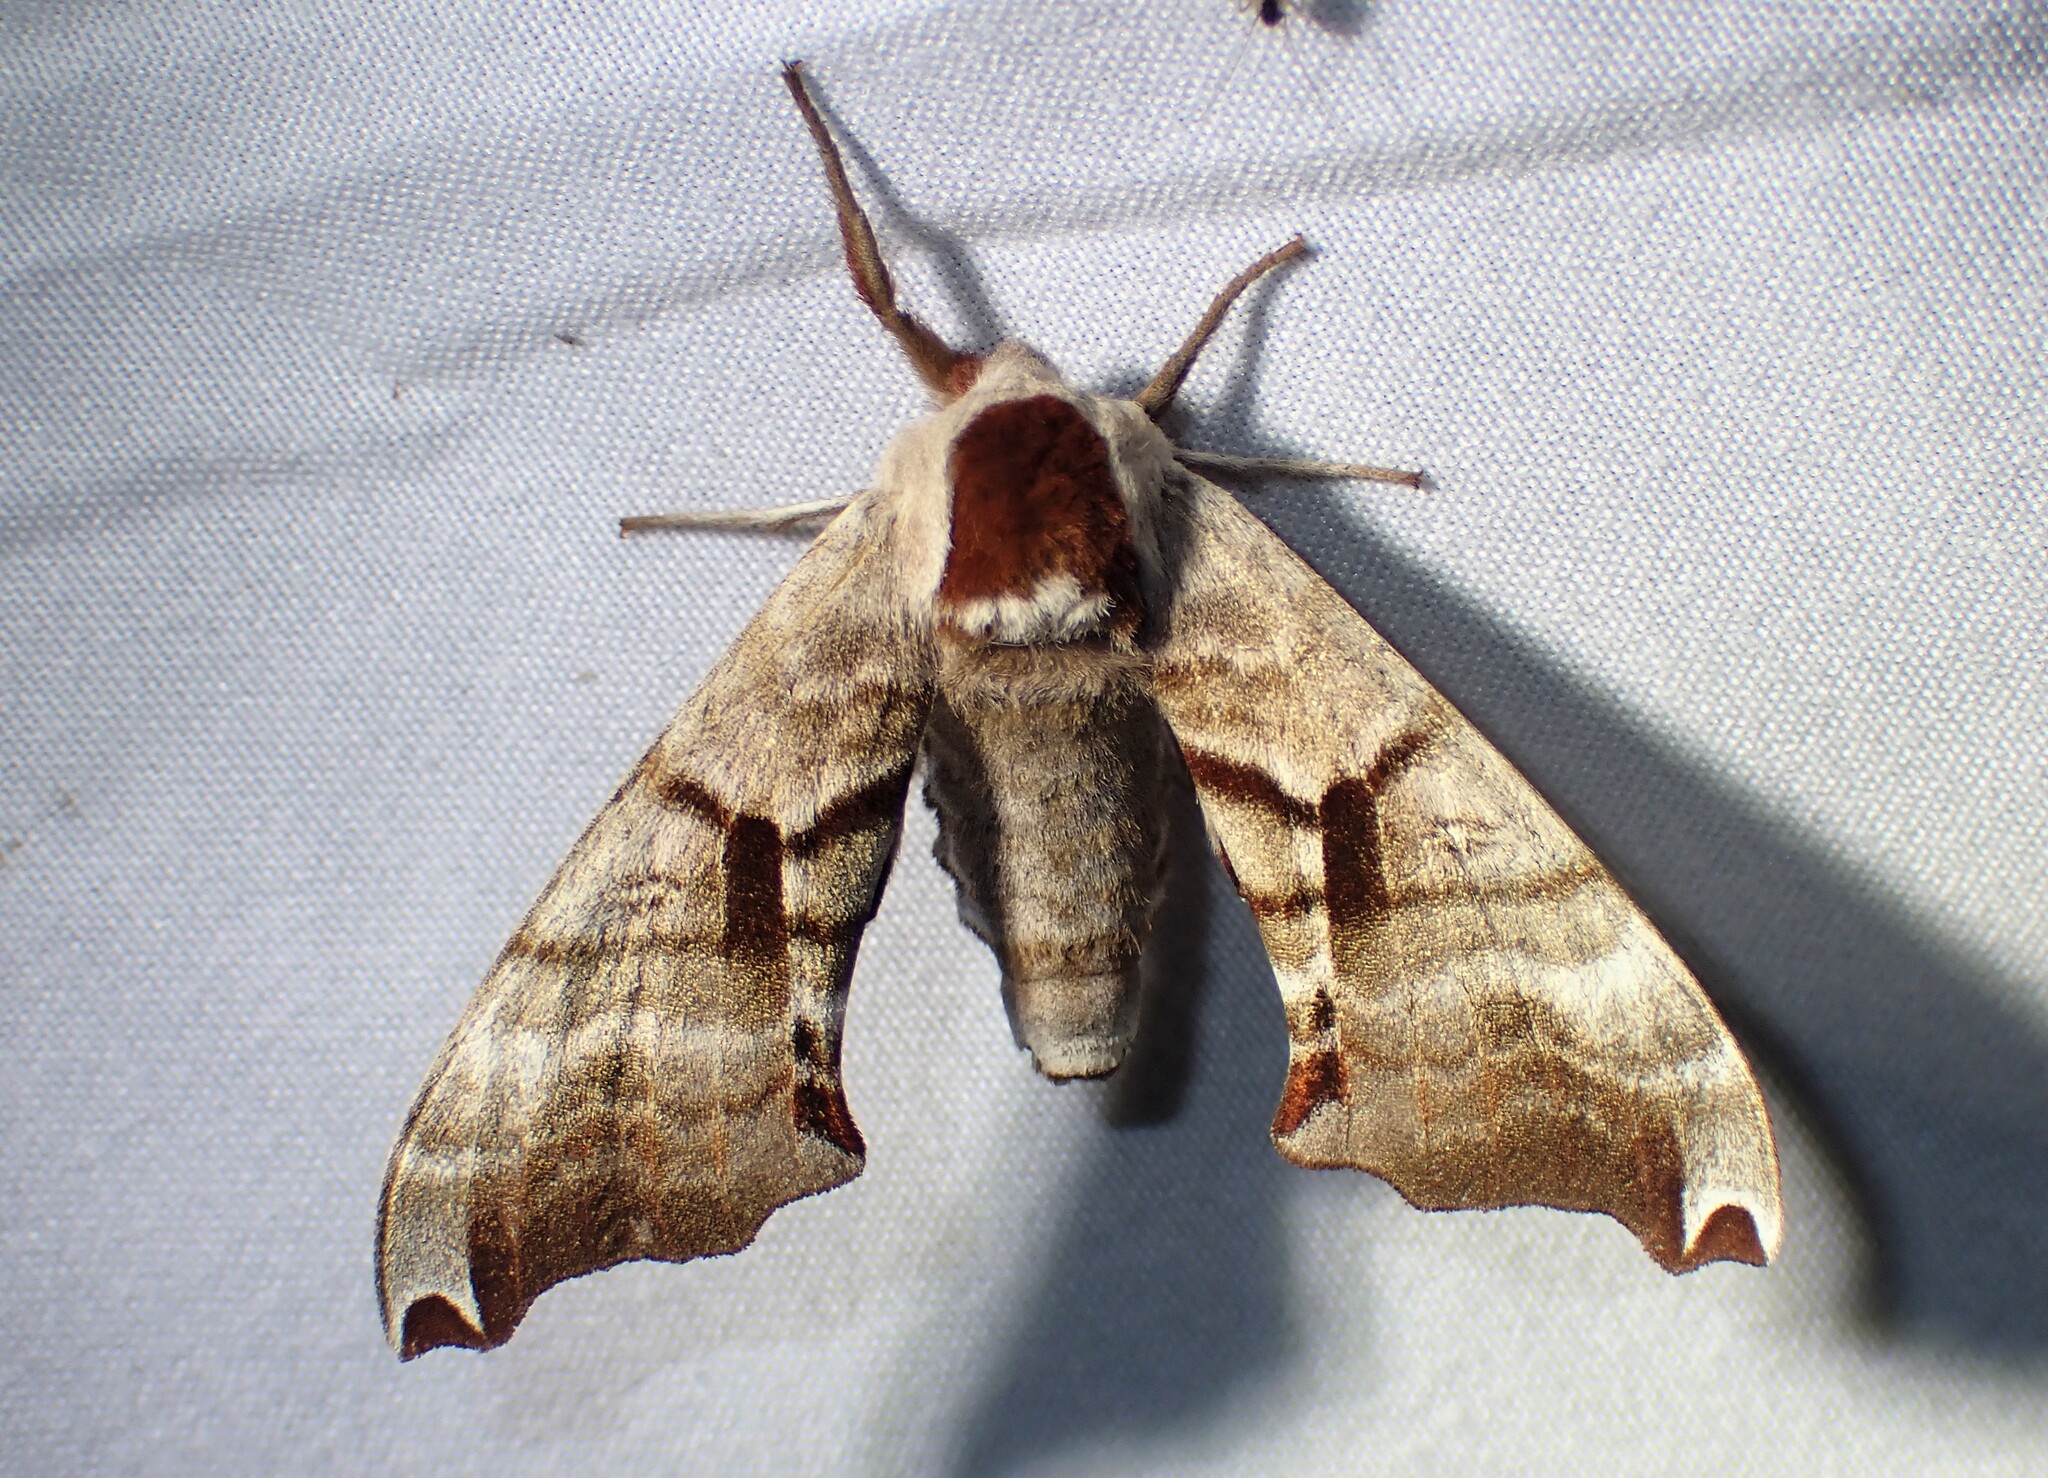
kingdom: Animalia
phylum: Arthropoda
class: Insecta
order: Lepidoptera
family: Sphingidae
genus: Smerinthus
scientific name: Smerinthus jamaicensis
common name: Twin spotted sphinx
